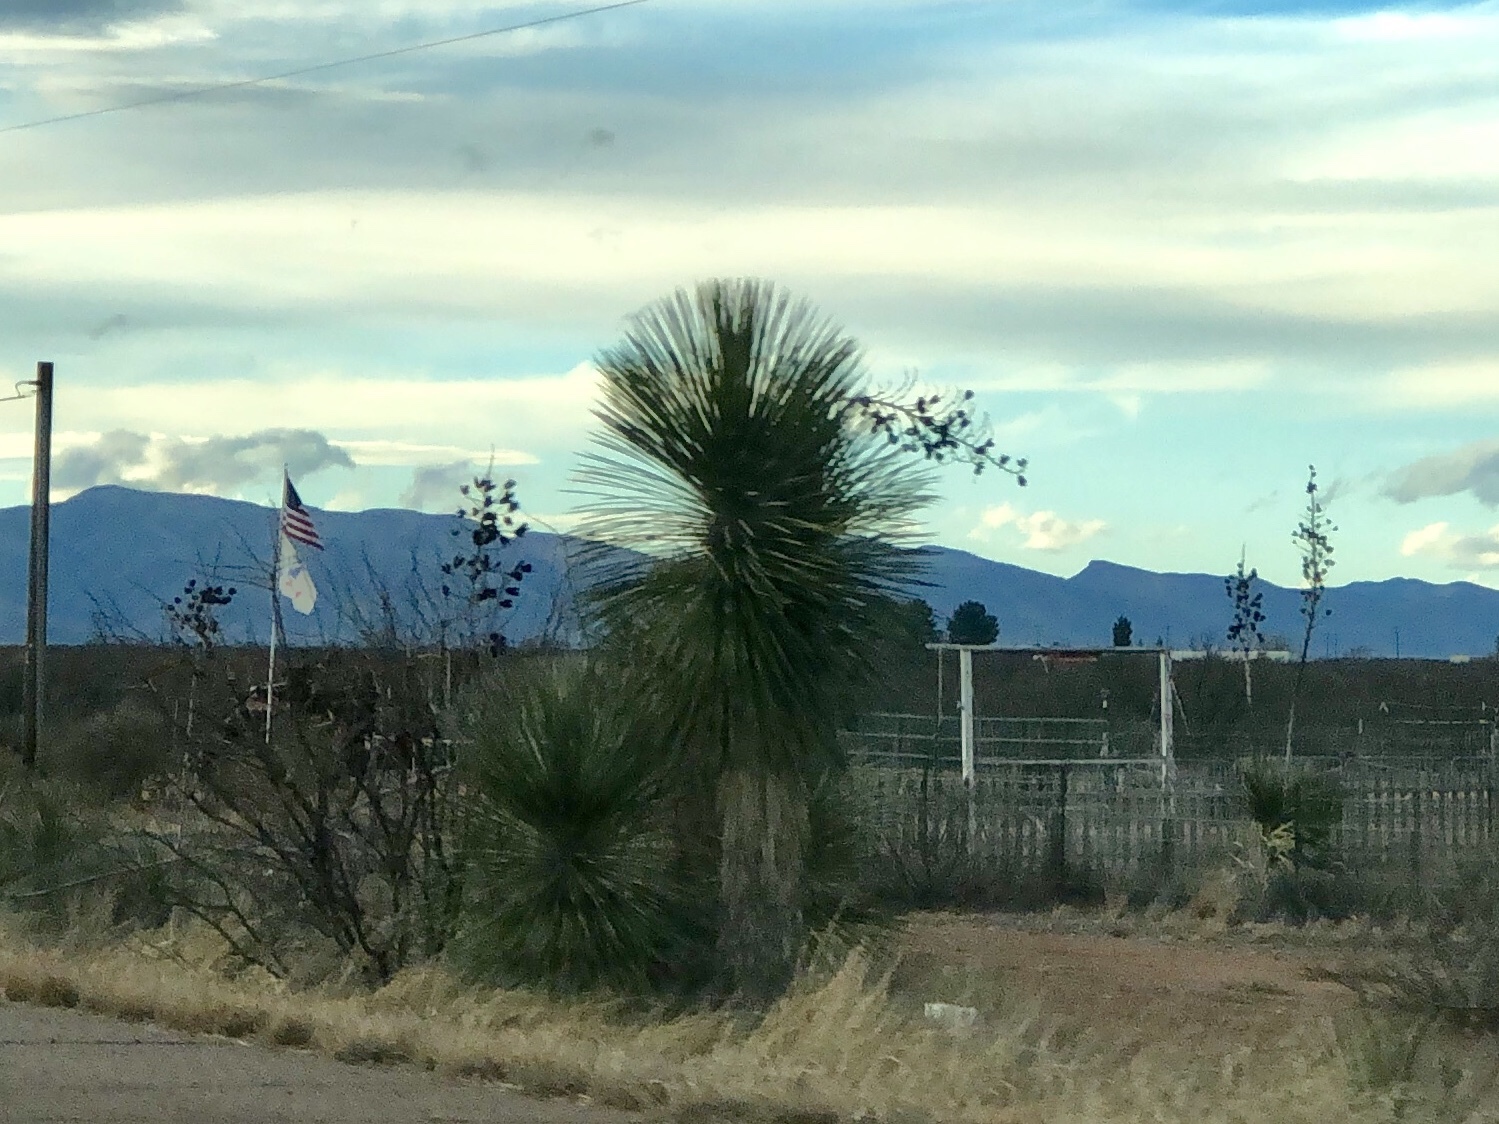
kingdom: Plantae
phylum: Tracheophyta
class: Liliopsida
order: Asparagales
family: Asparagaceae
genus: Yucca
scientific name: Yucca elata
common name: Palmella
